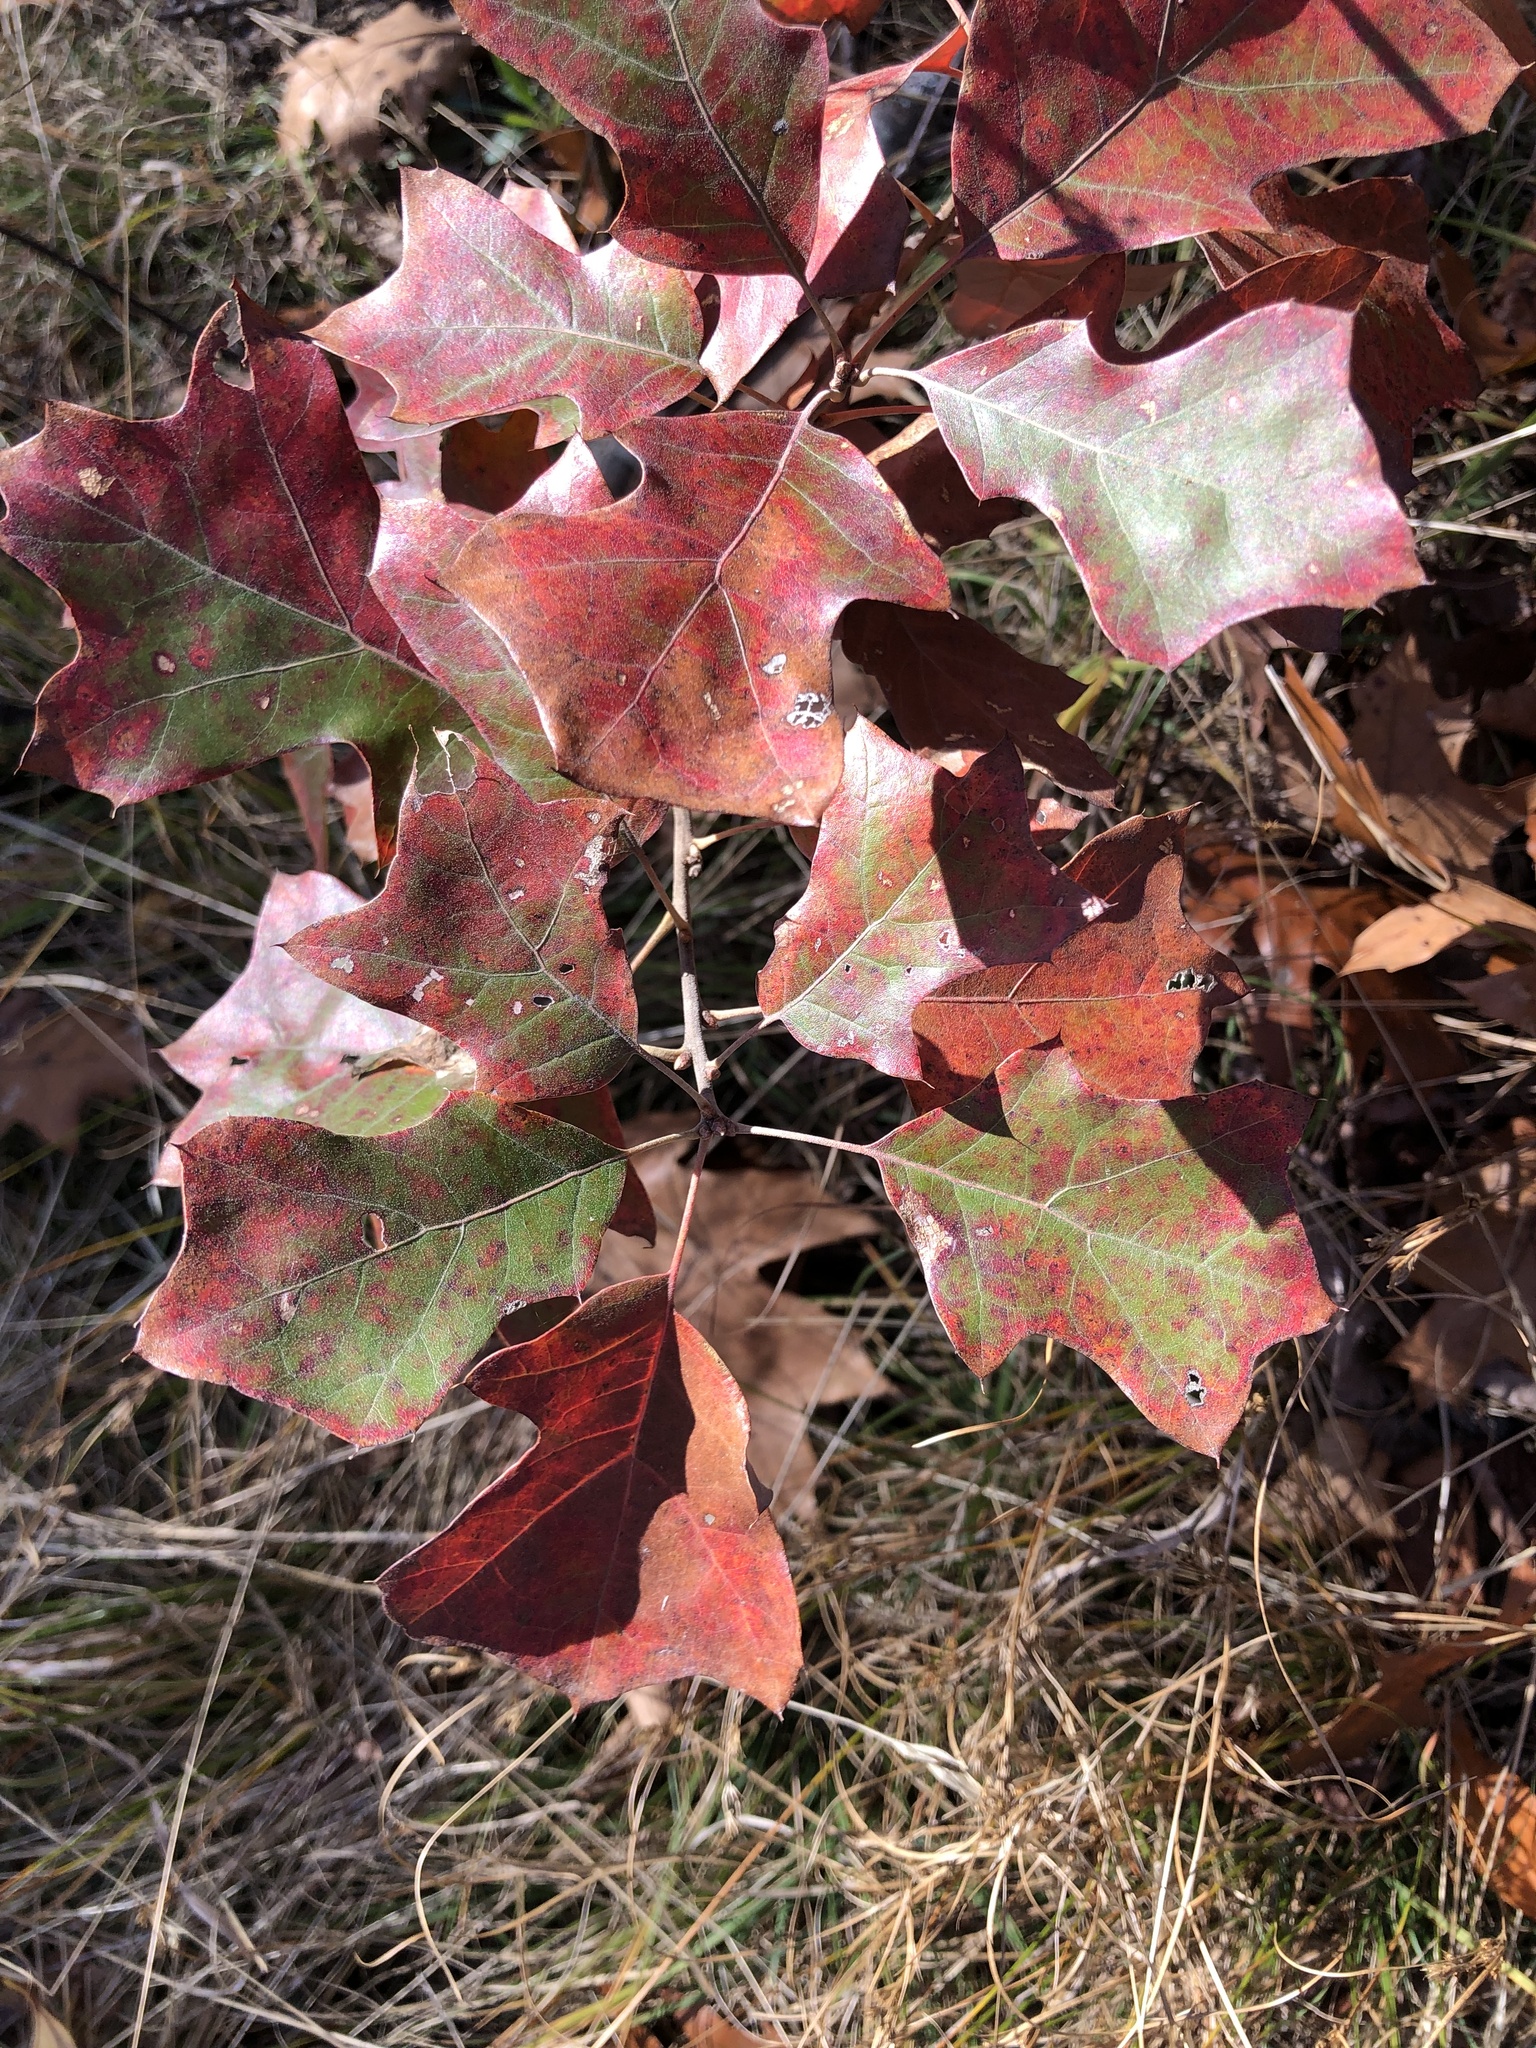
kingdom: Plantae
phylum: Tracheophyta
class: Magnoliopsida
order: Fagales
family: Fagaceae
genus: Quercus
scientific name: Quercus ilicifolia
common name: Bear oak
